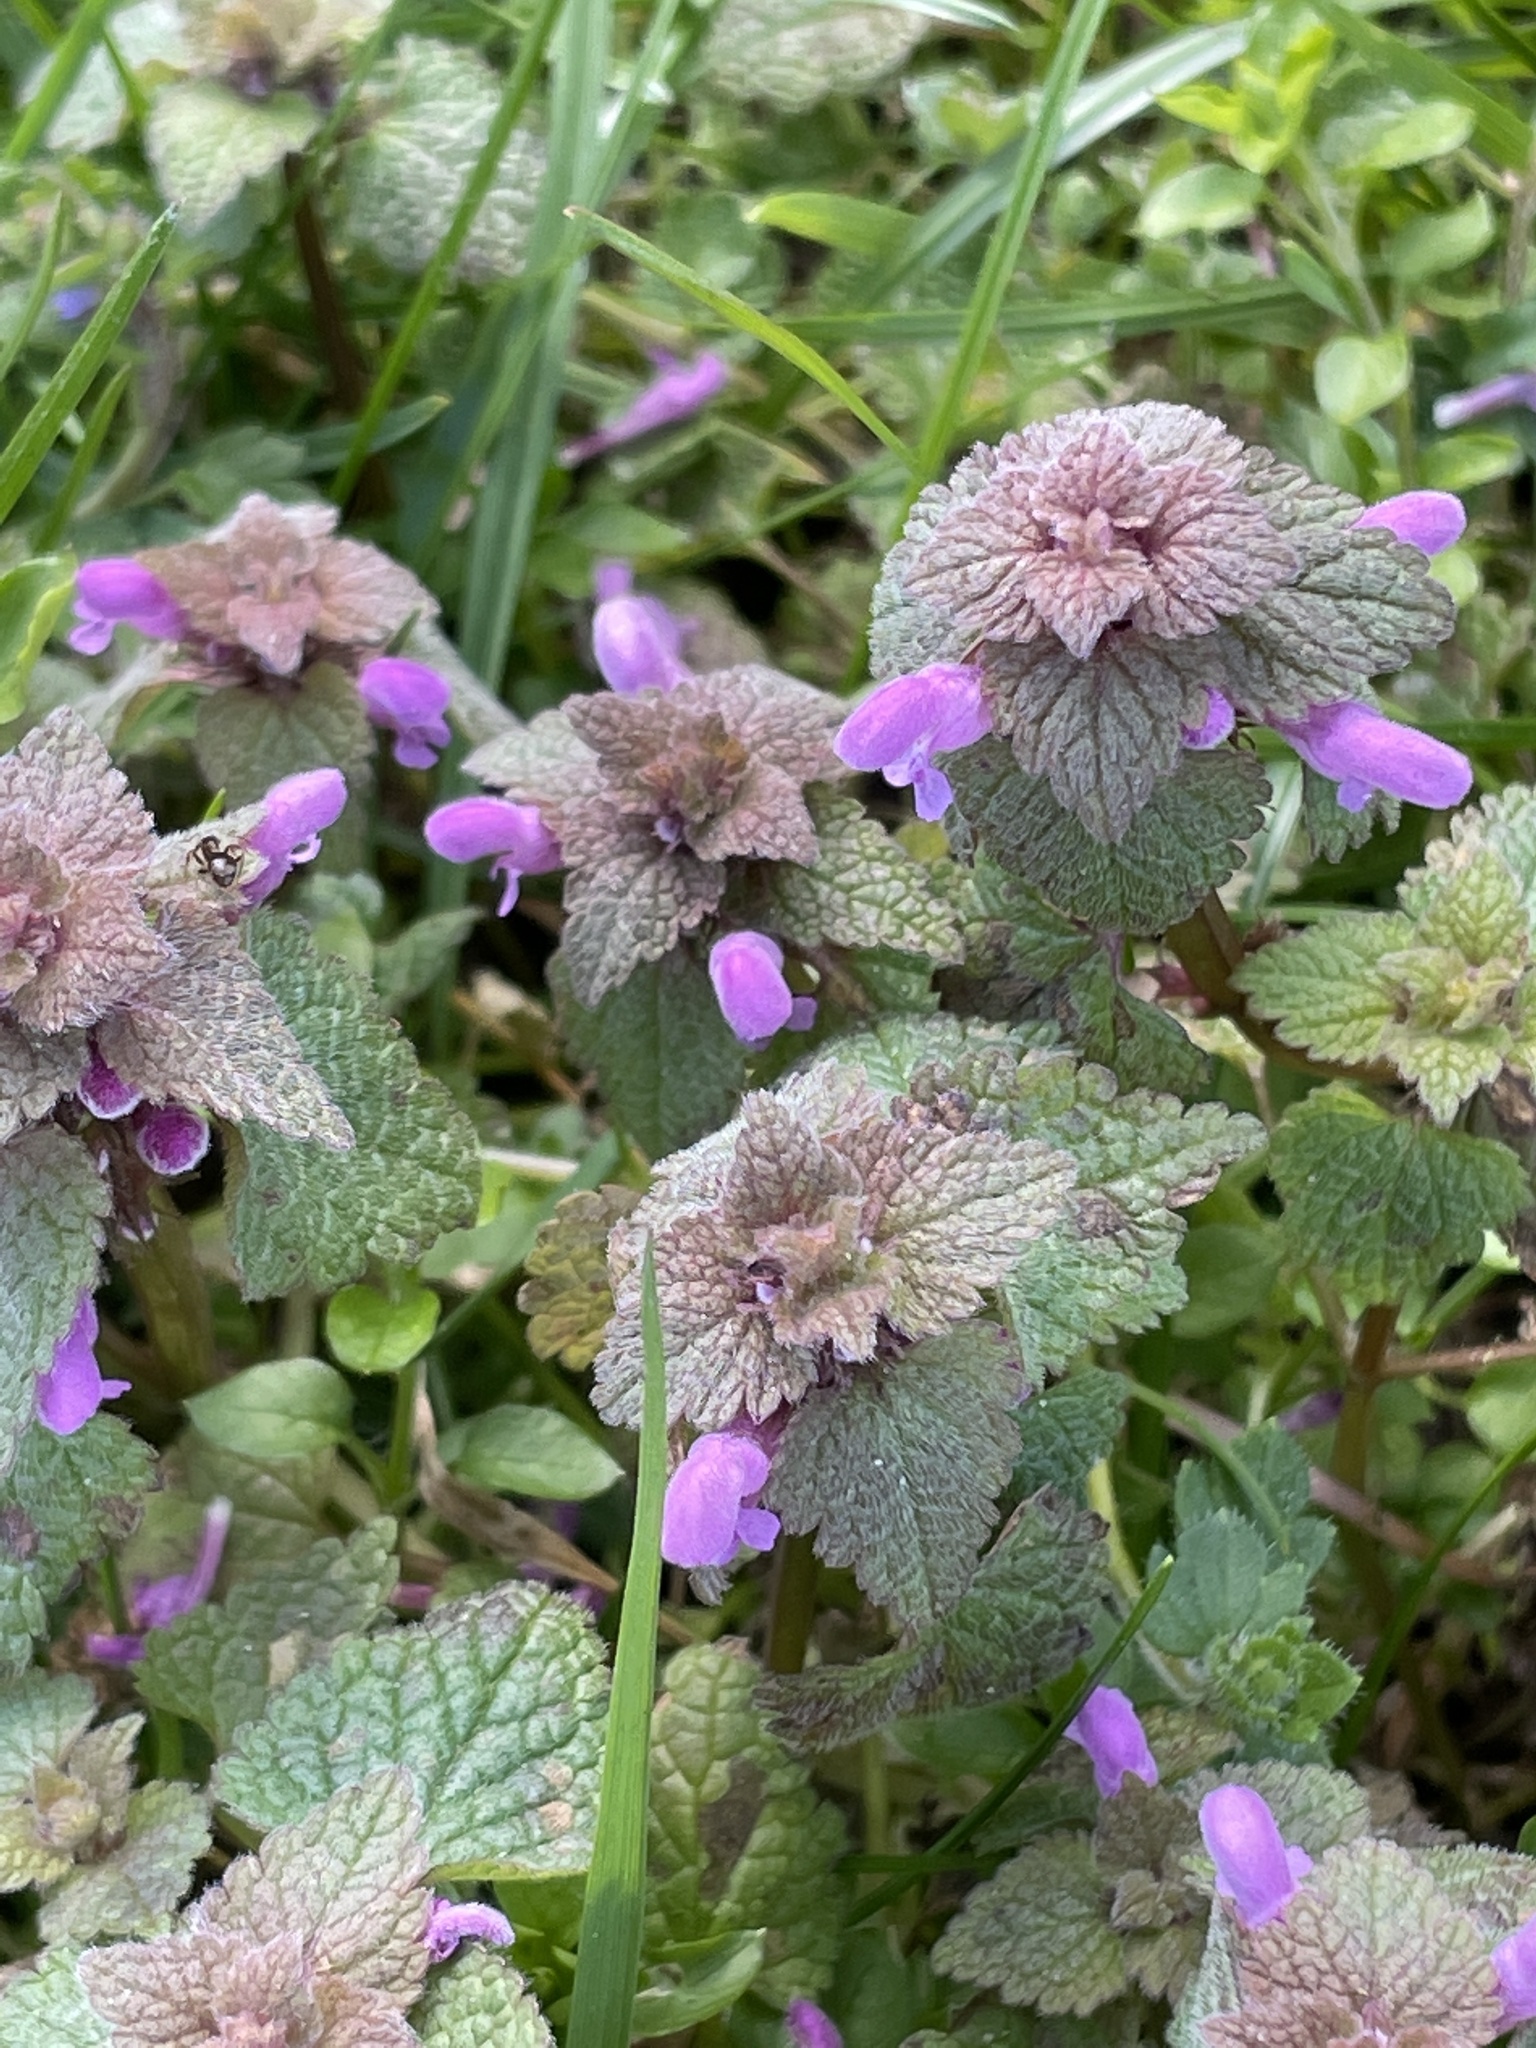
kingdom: Plantae
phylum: Tracheophyta
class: Magnoliopsida
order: Lamiales
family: Lamiaceae
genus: Lamium
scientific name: Lamium purpureum
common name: Red dead-nettle
